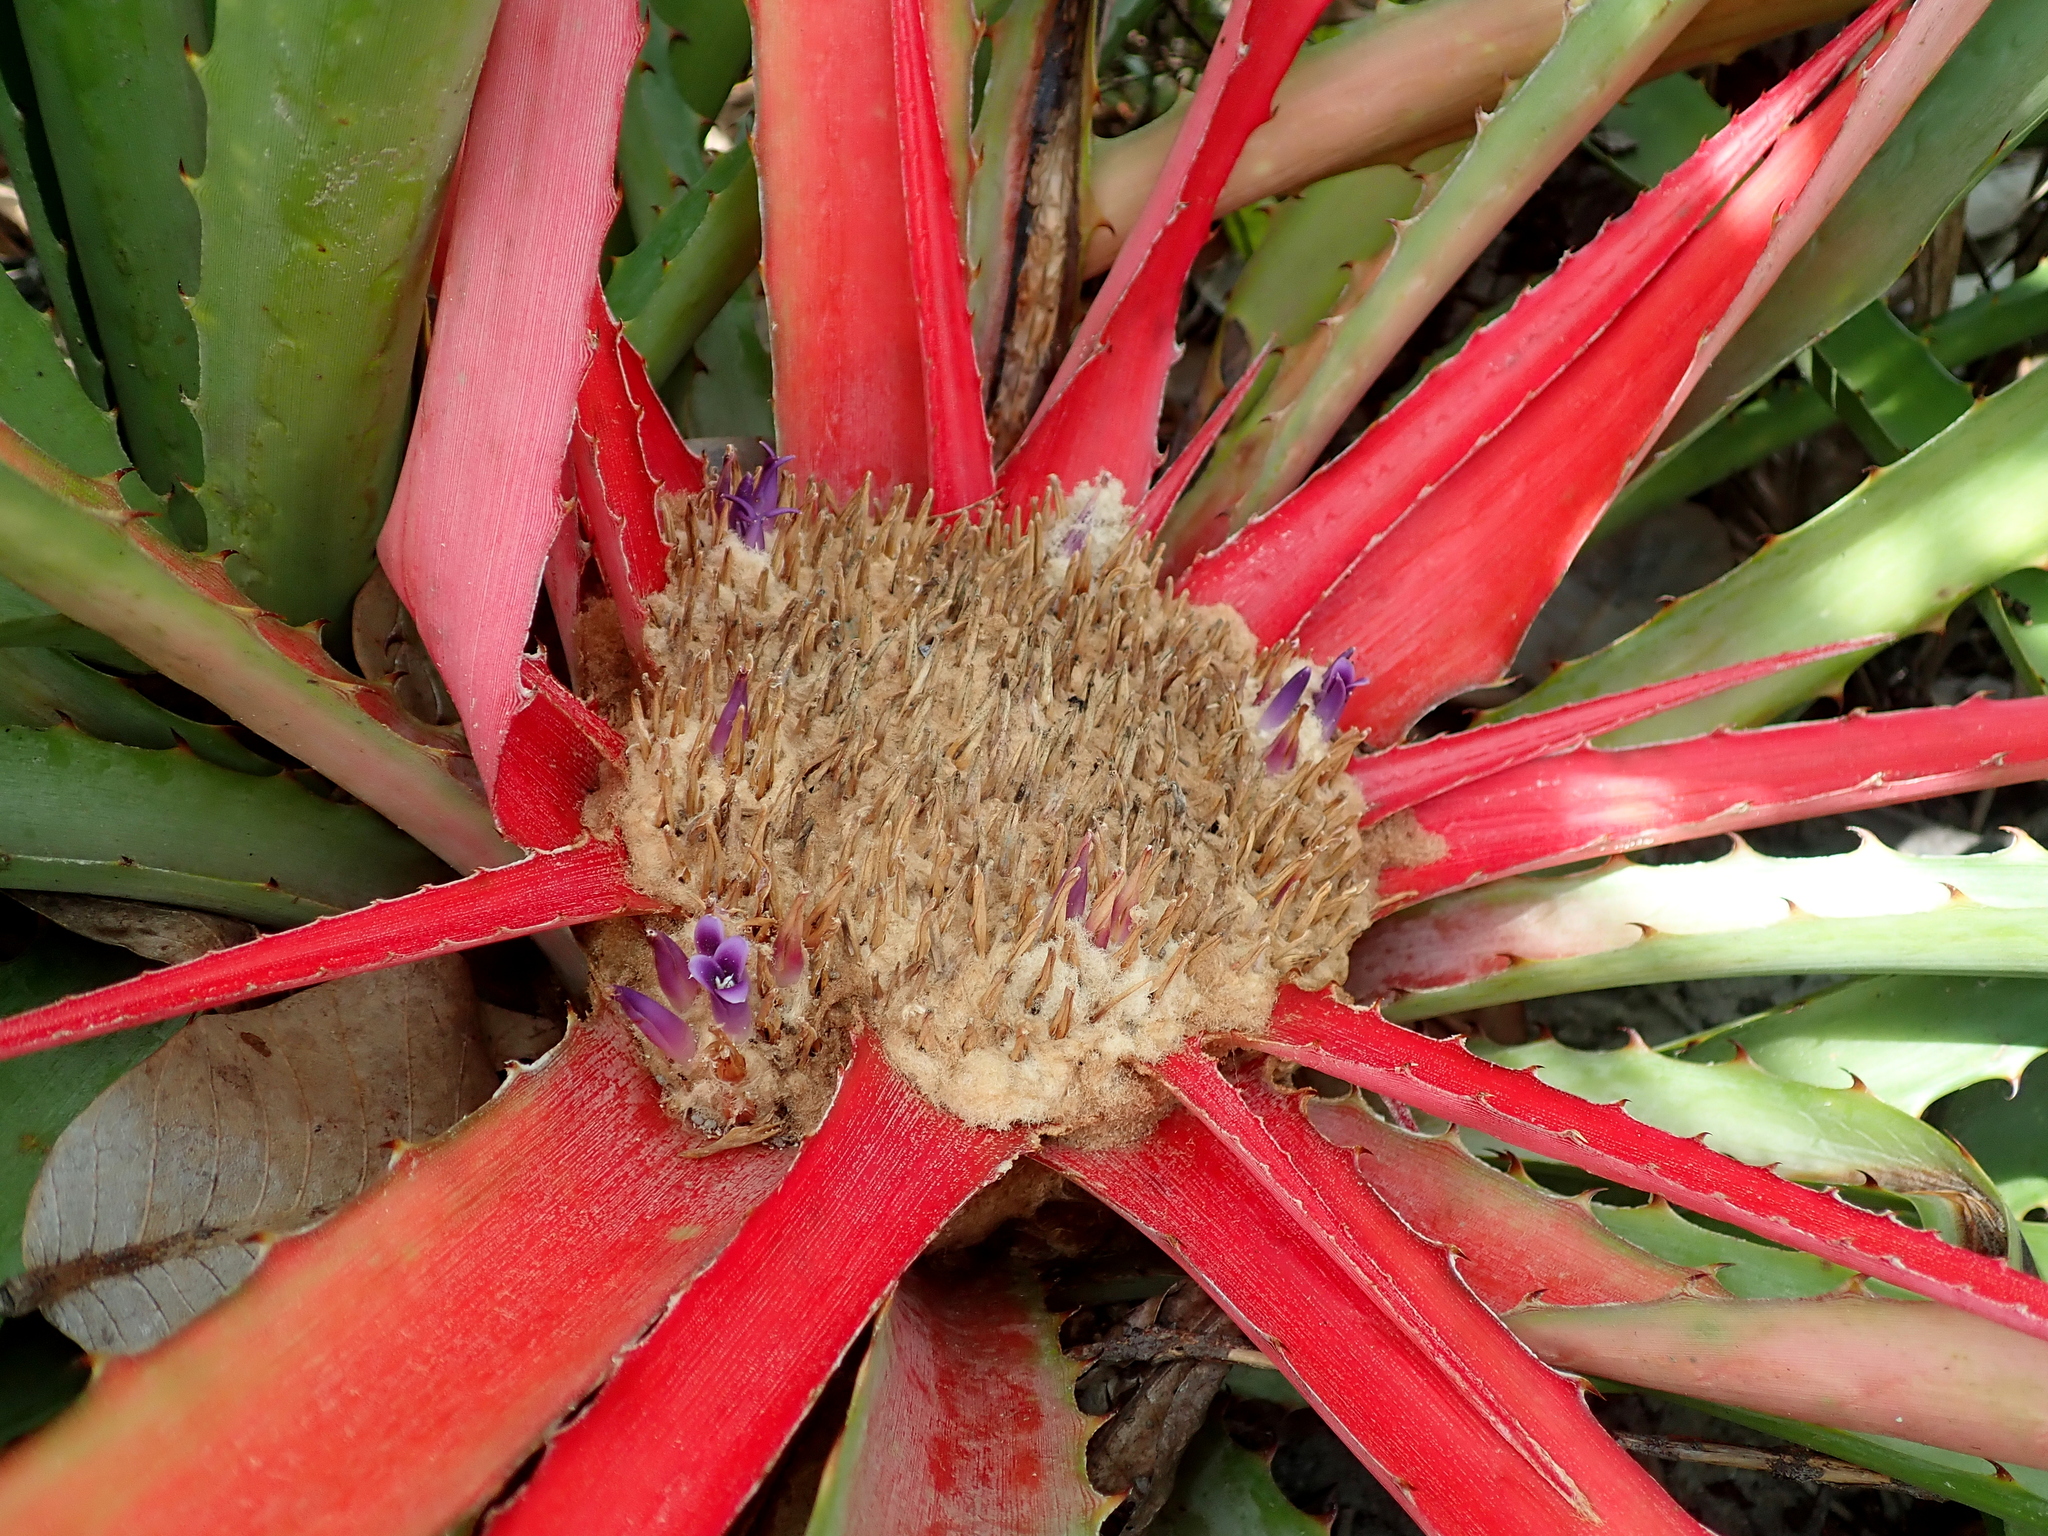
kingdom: Plantae
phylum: Tracheophyta
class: Liliopsida
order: Poales
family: Bromeliaceae
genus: Bromelia
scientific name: Bromelia villosa
